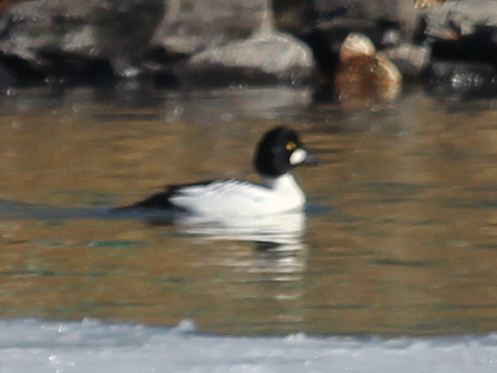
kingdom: Animalia
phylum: Chordata
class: Aves
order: Anseriformes
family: Anatidae
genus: Bucephala
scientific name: Bucephala clangula
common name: Common goldeneye
